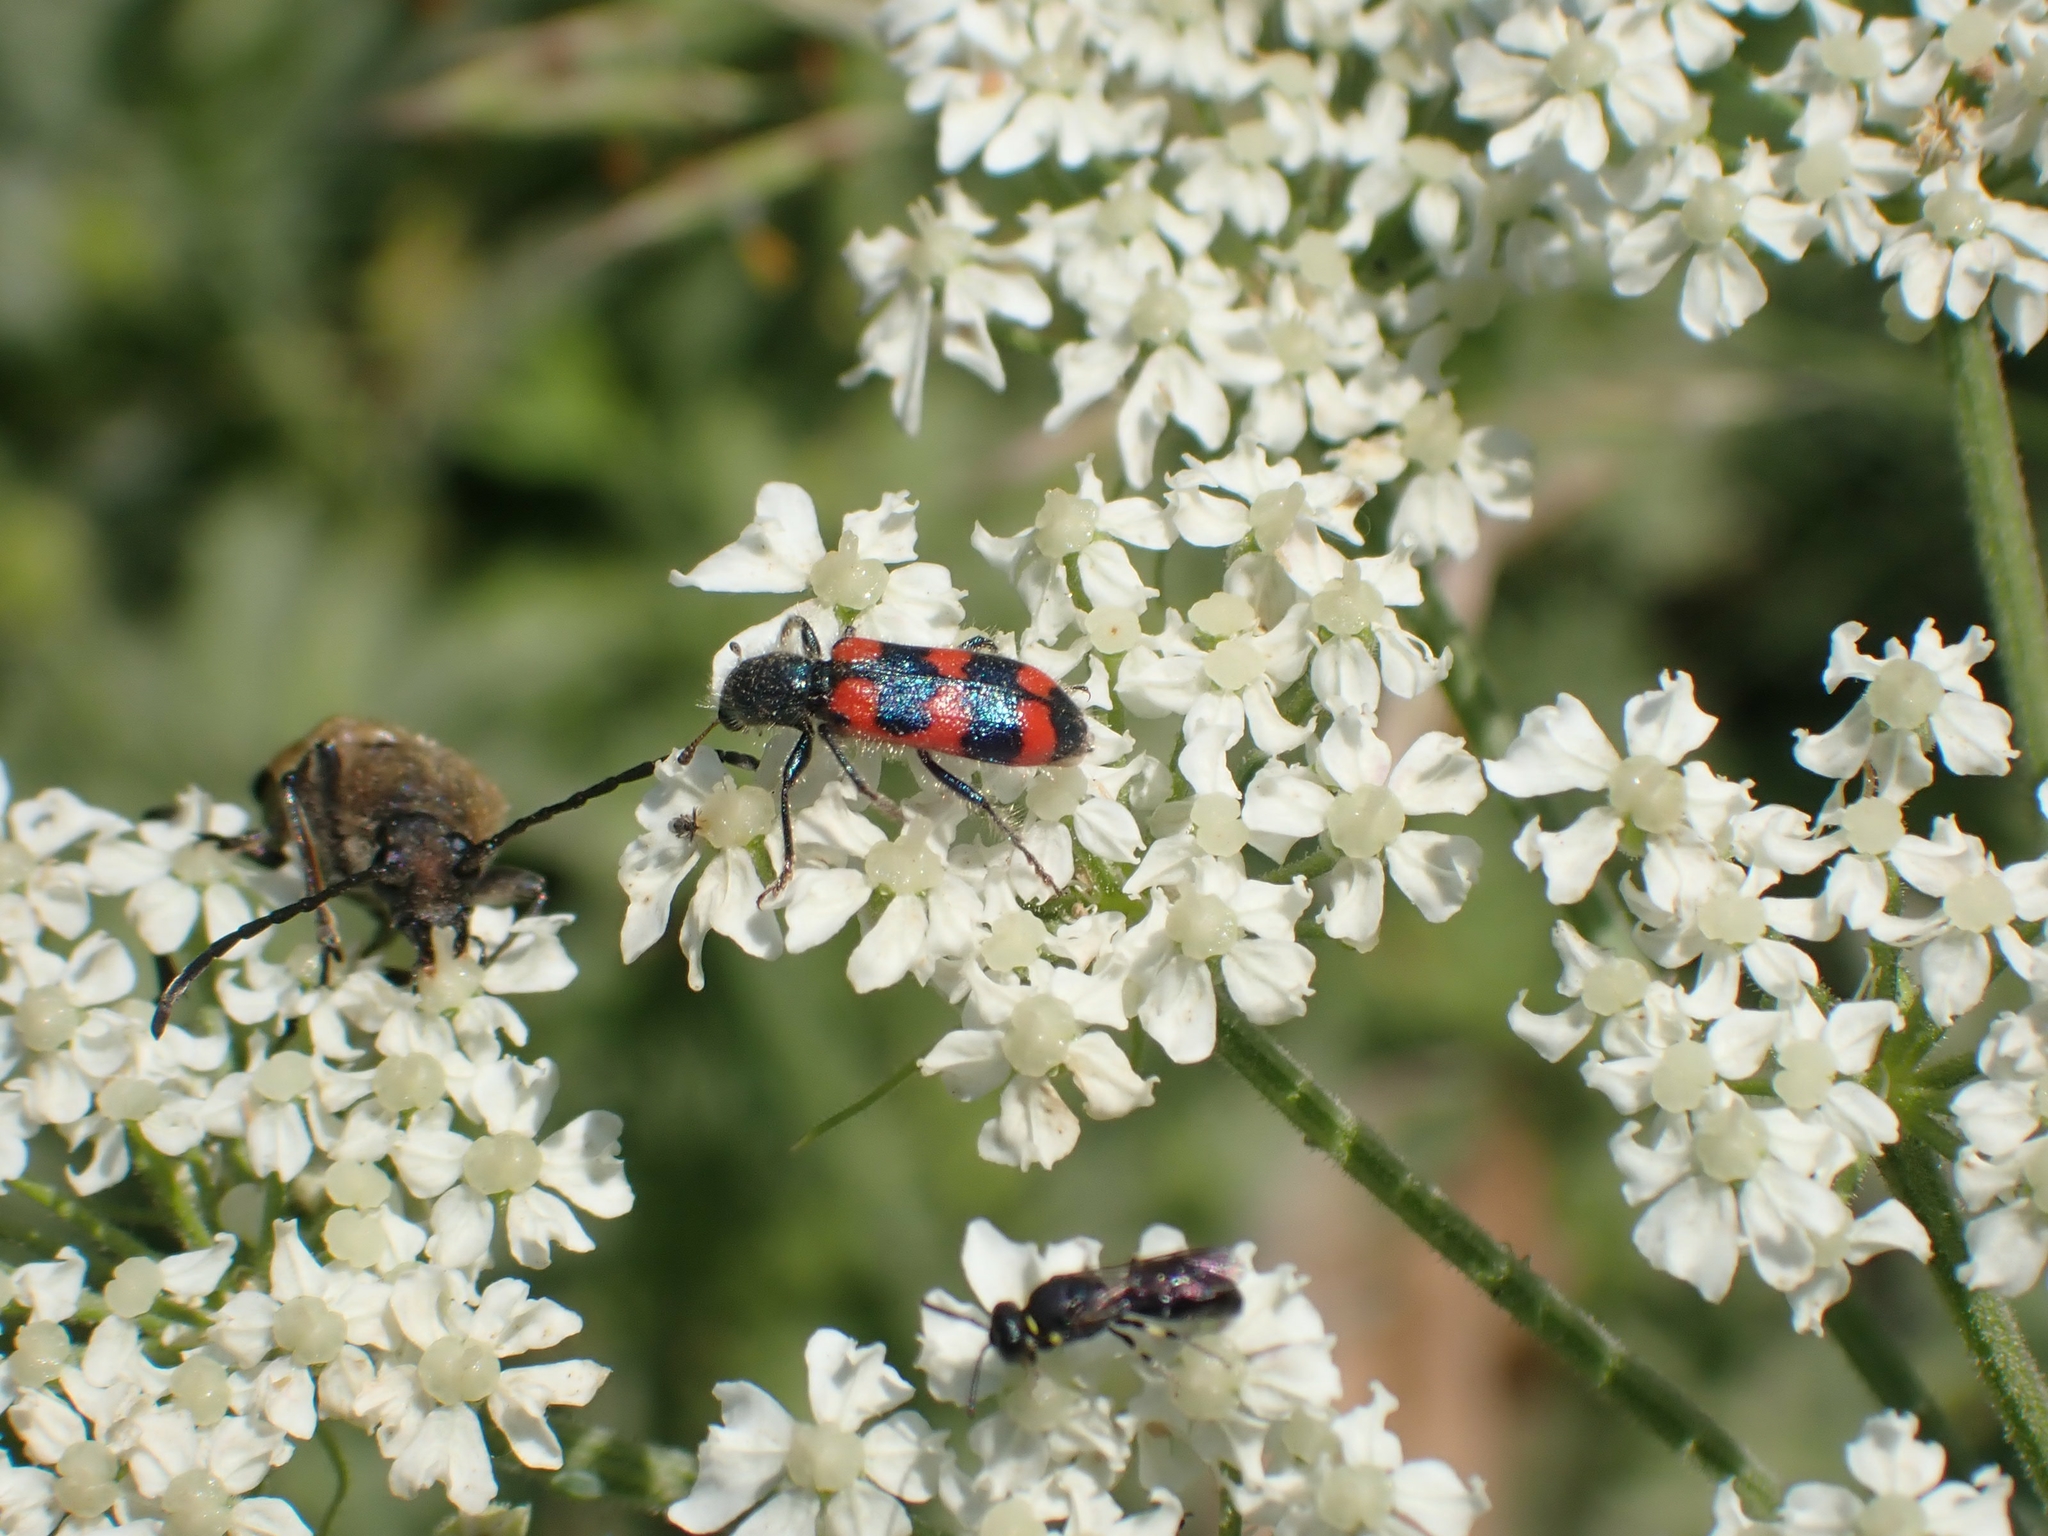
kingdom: Animalia
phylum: Arthropoda
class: Insecta
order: Coleoptera
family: Cleridae
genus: Trichodes
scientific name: Trichodes nutalli
